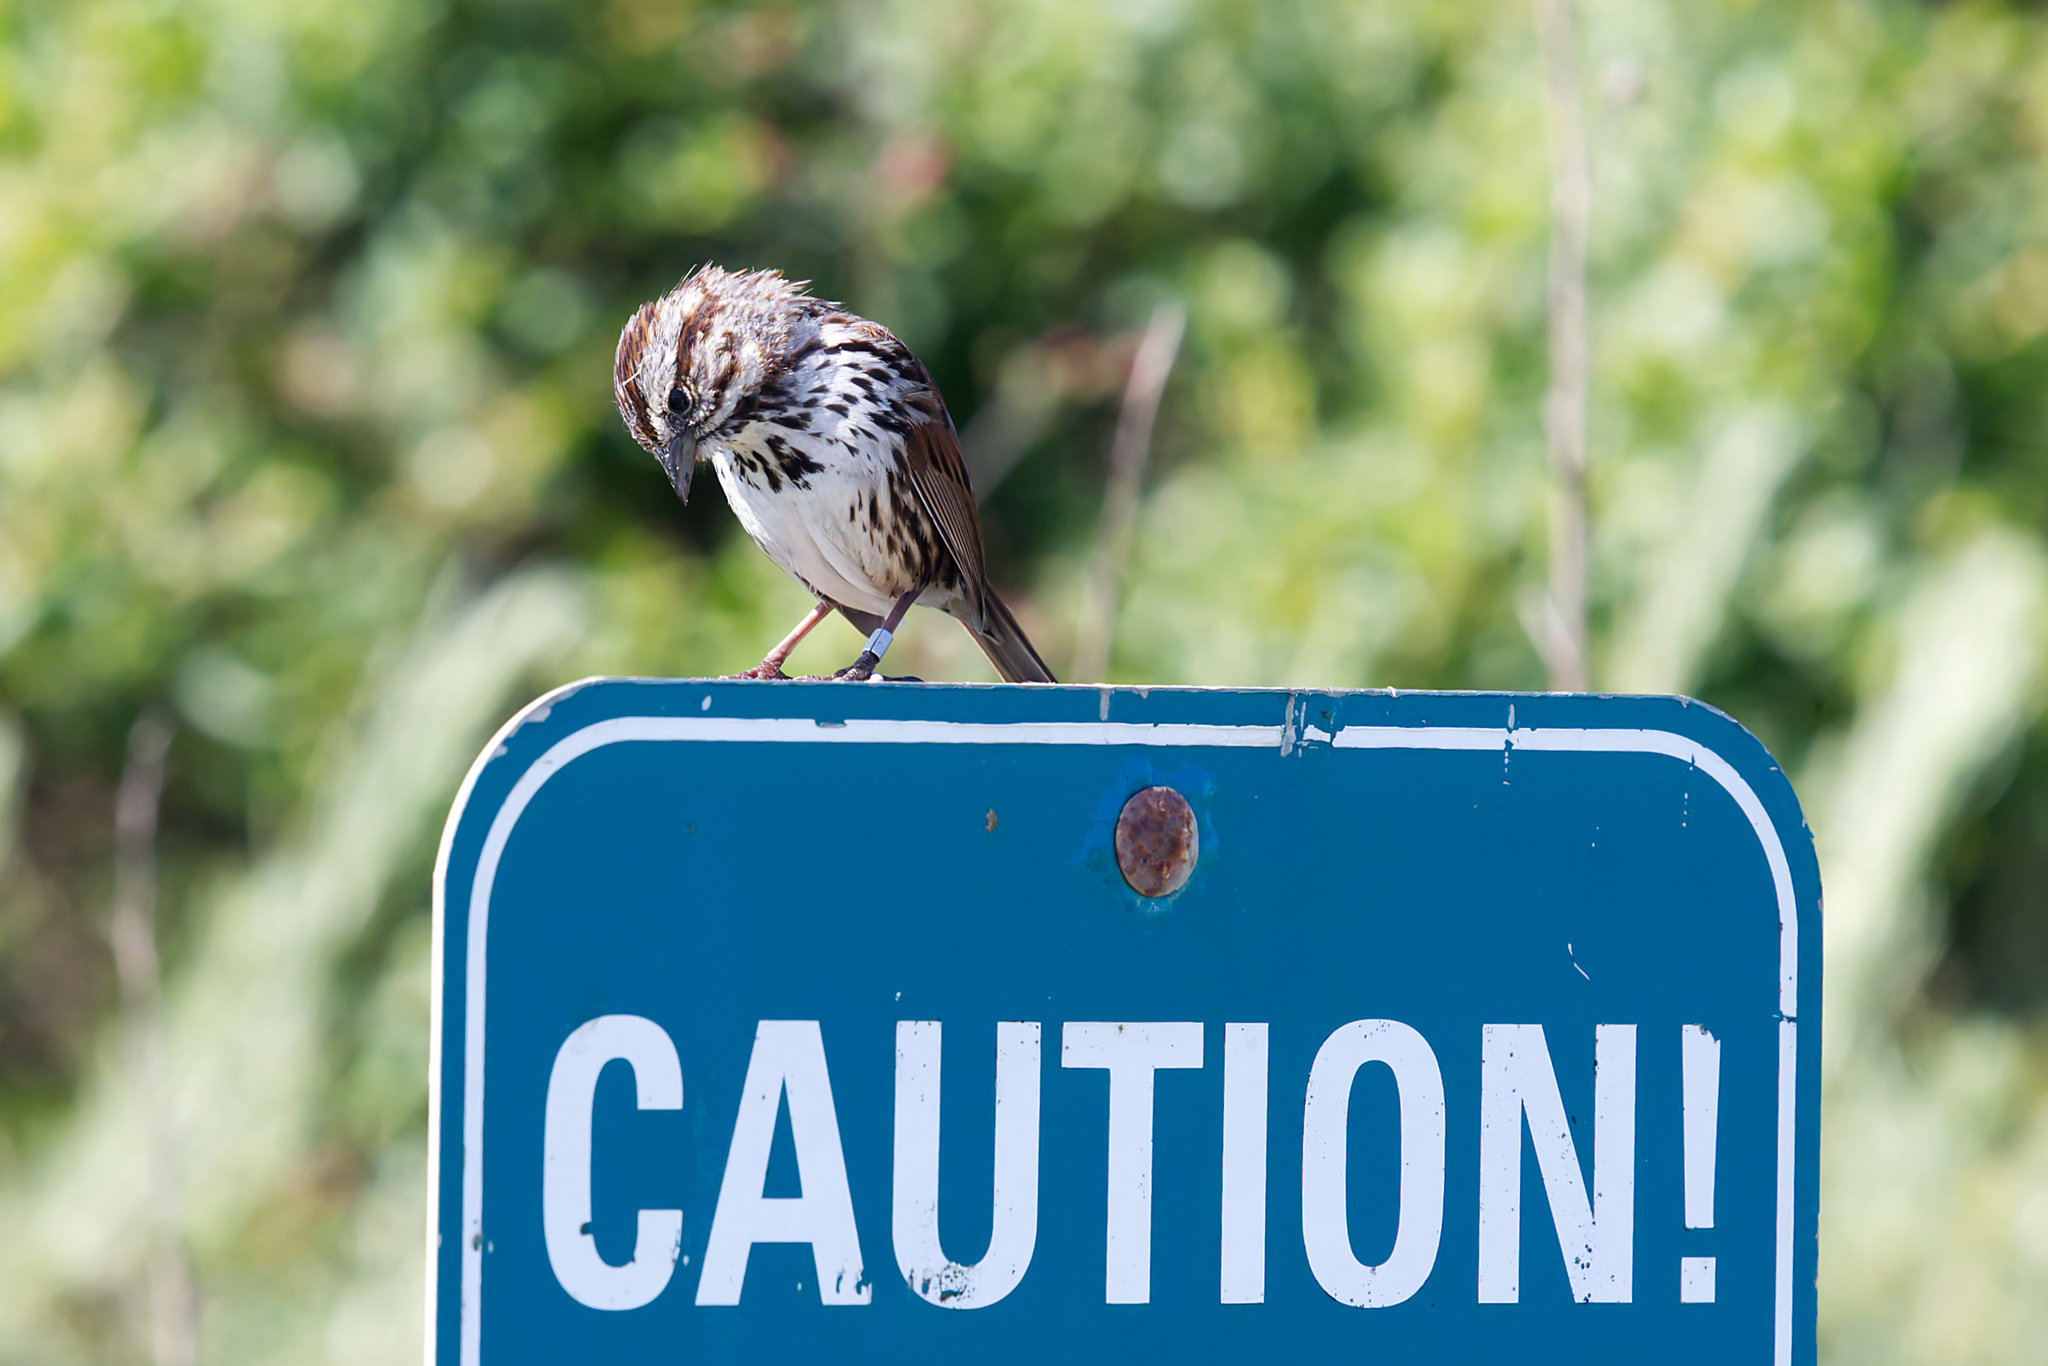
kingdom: Animalia
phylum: Chordata
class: Aves
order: Passeriformes
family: Passerellidae
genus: Melospiza
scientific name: Melospiza melodia
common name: Song sparrow
